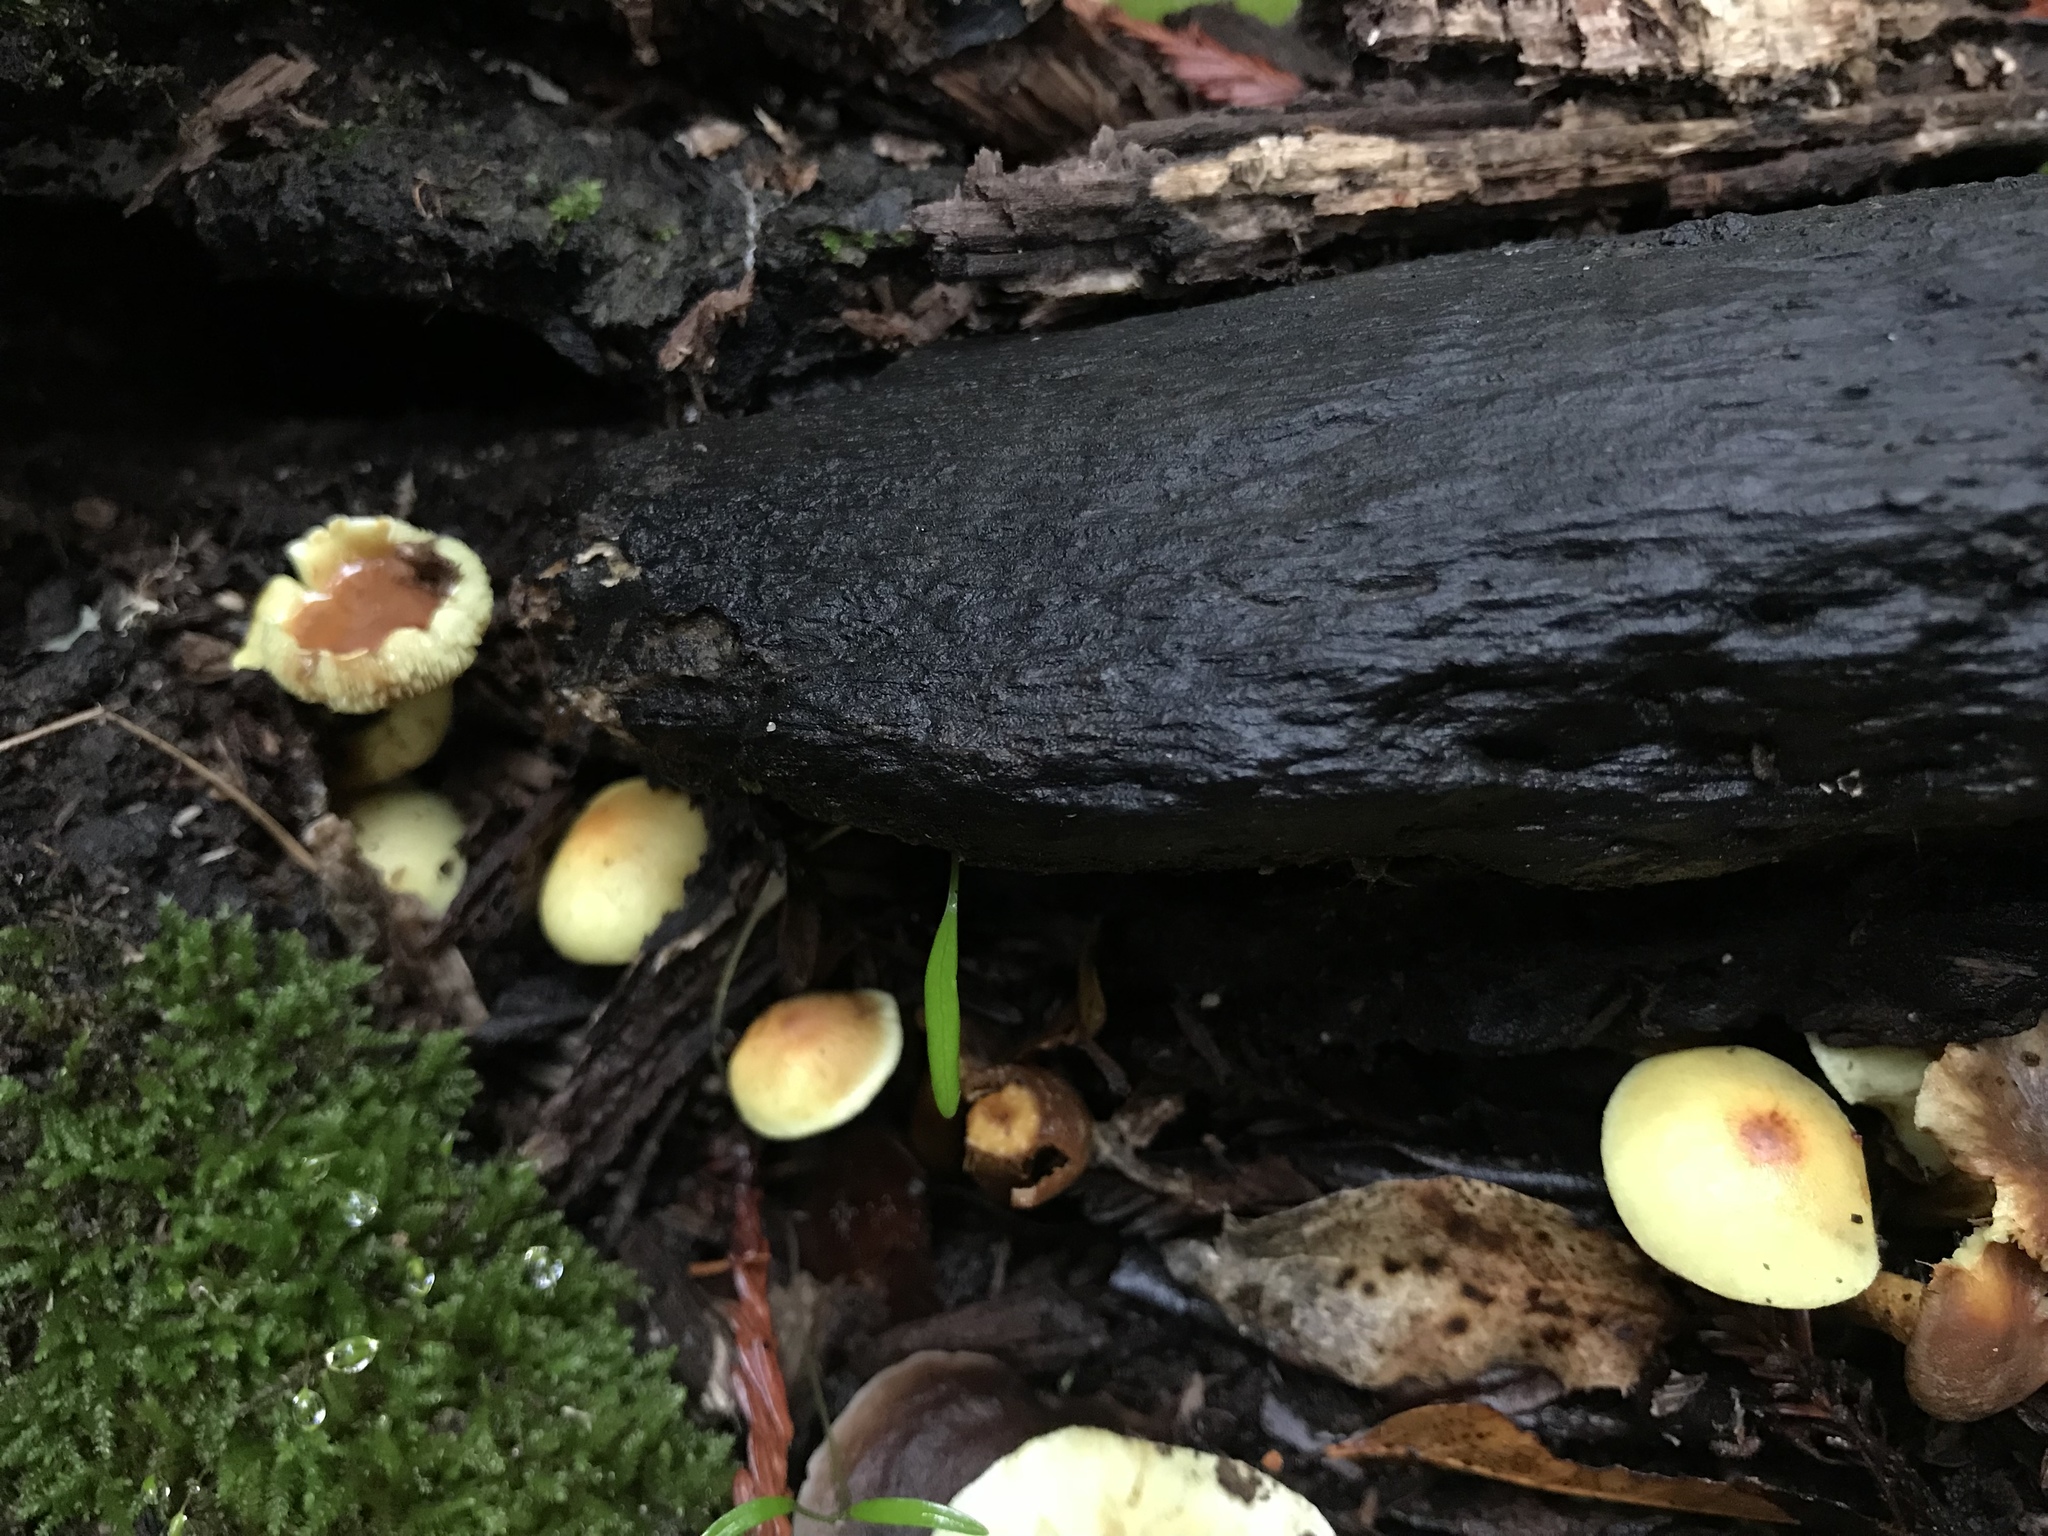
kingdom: Fungi
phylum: Basidiomycota
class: Agaricomycetes
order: Agaricales
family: Strophariaceae
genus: Hypholoma
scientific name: Hypholoma fasciculare
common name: Sulphur tuft
